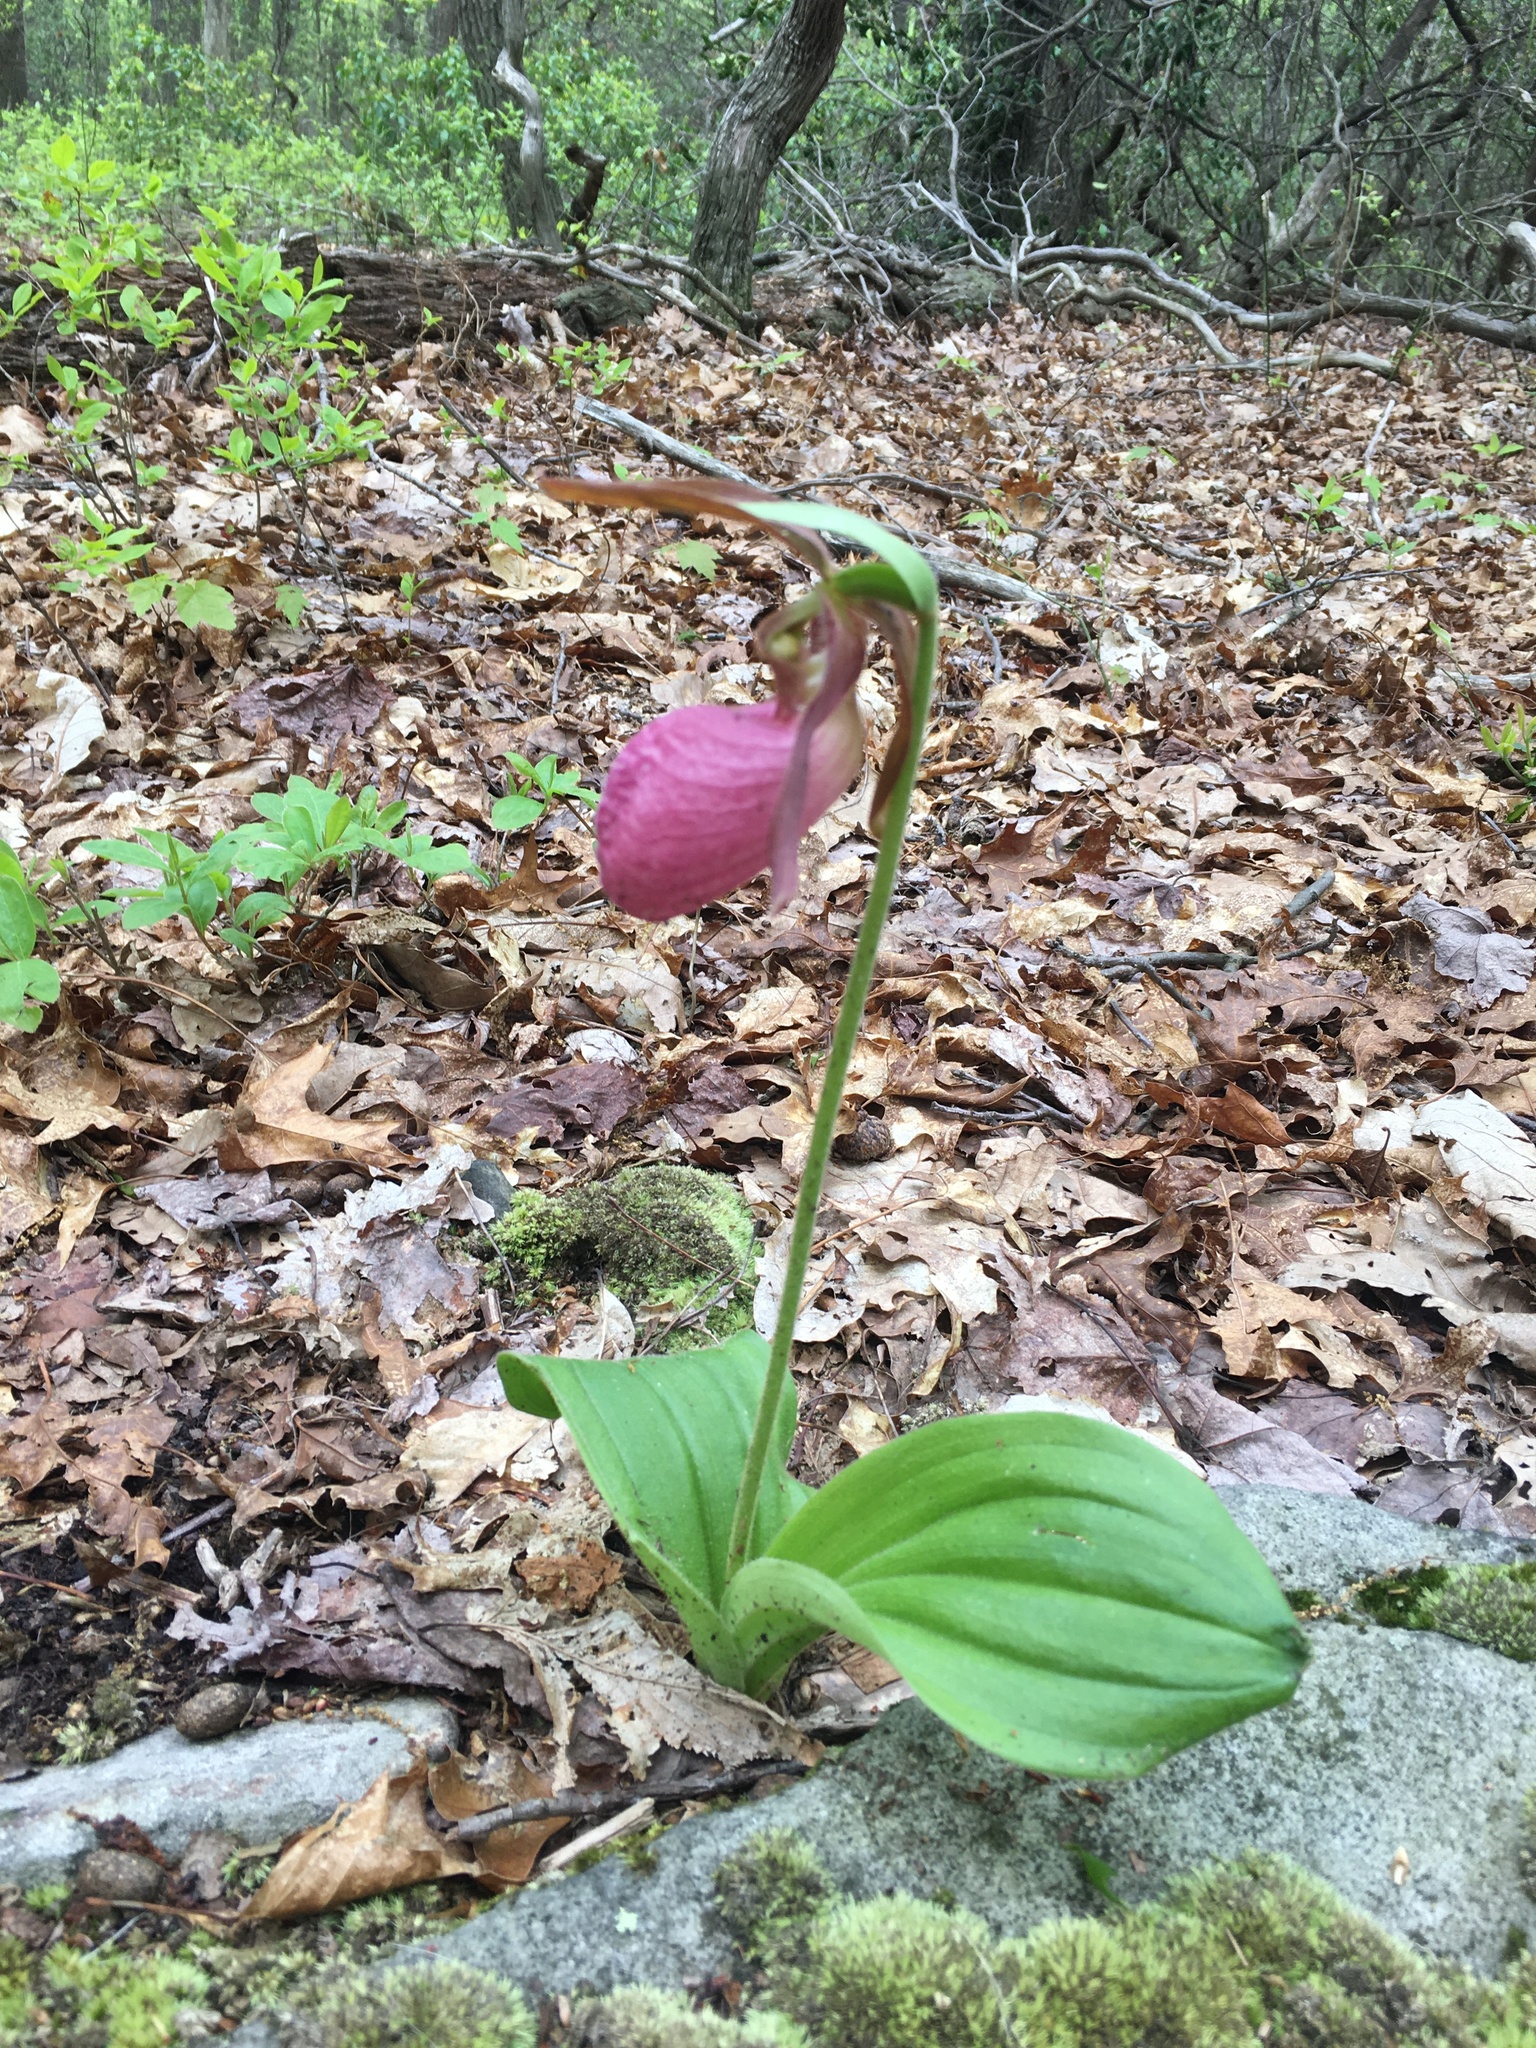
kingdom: Plantae
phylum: Tracheophyta
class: Liliopsida
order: Asparagales
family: Orchidaceae
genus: Cypripedium
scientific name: Cypripedium acaule
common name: Pink lady's-slipper
